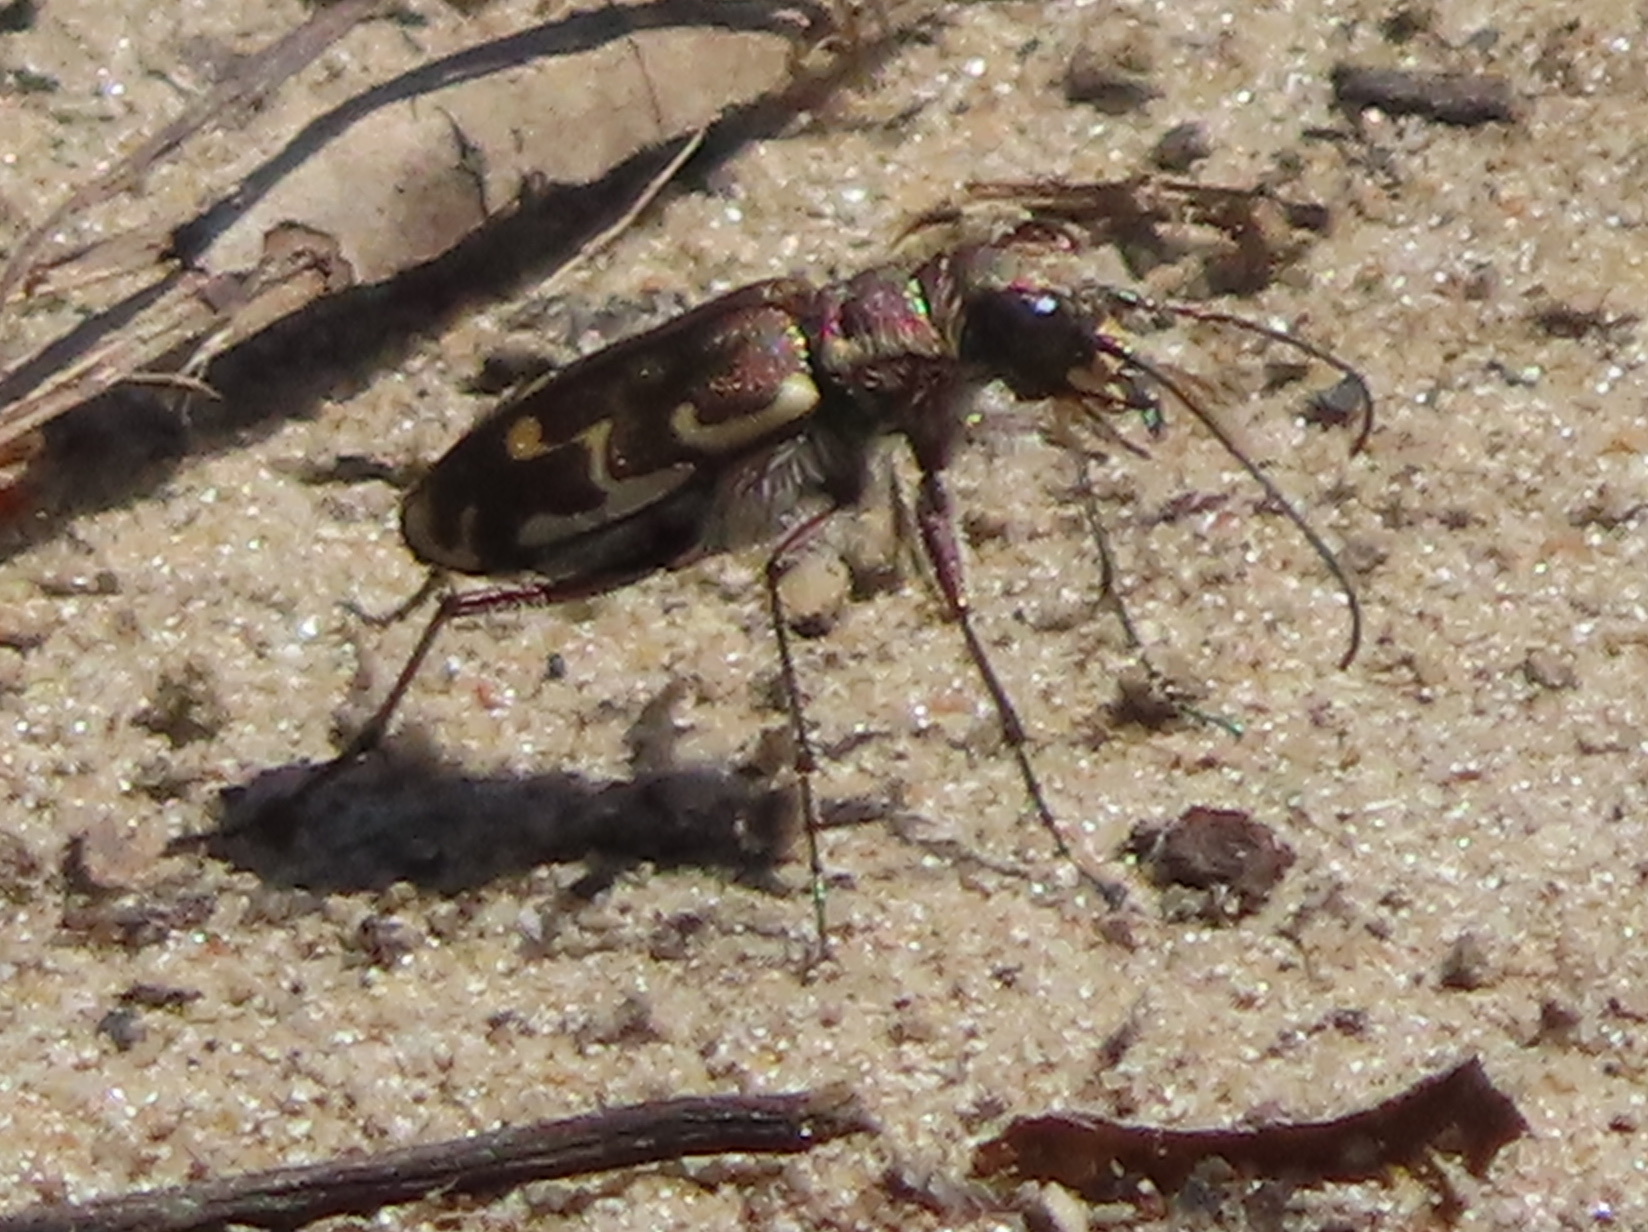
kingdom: Animalia
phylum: Arthropoda
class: Insecta
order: Coleoptera
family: Carabidae
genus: Cicindela
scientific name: Cicindela repanda
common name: Bronzed tiger beetle
